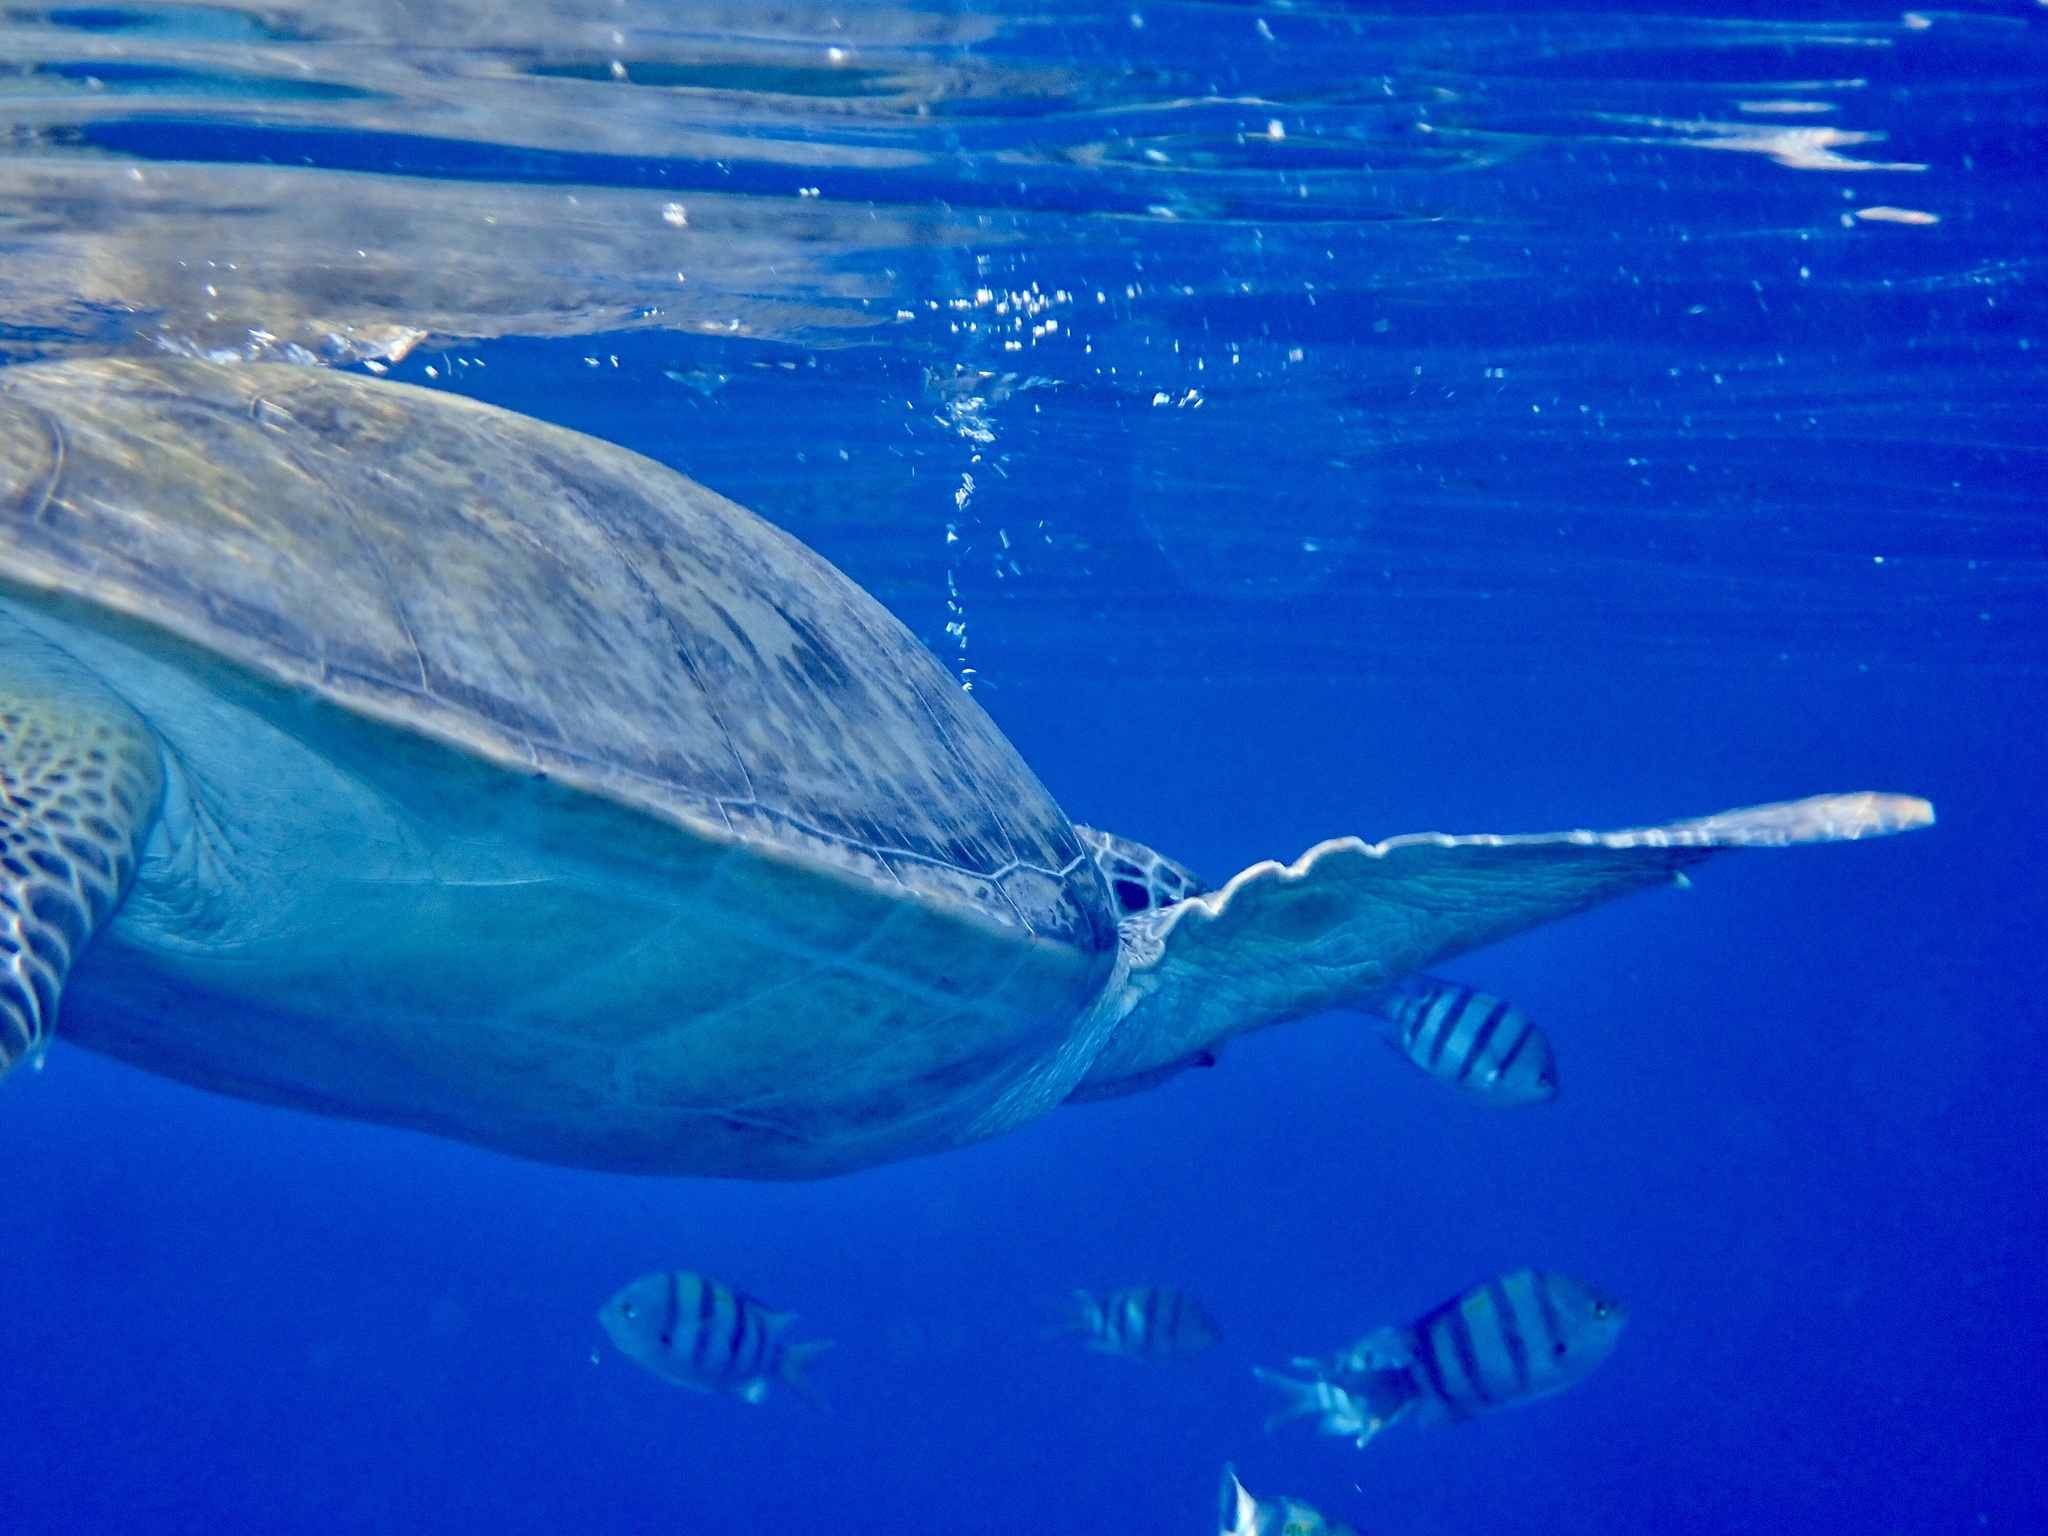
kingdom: Animalia
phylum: Chordata
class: Testudines
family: Cheloniidae
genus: Chelonia
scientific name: Chelonia mydas
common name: Green turtle
